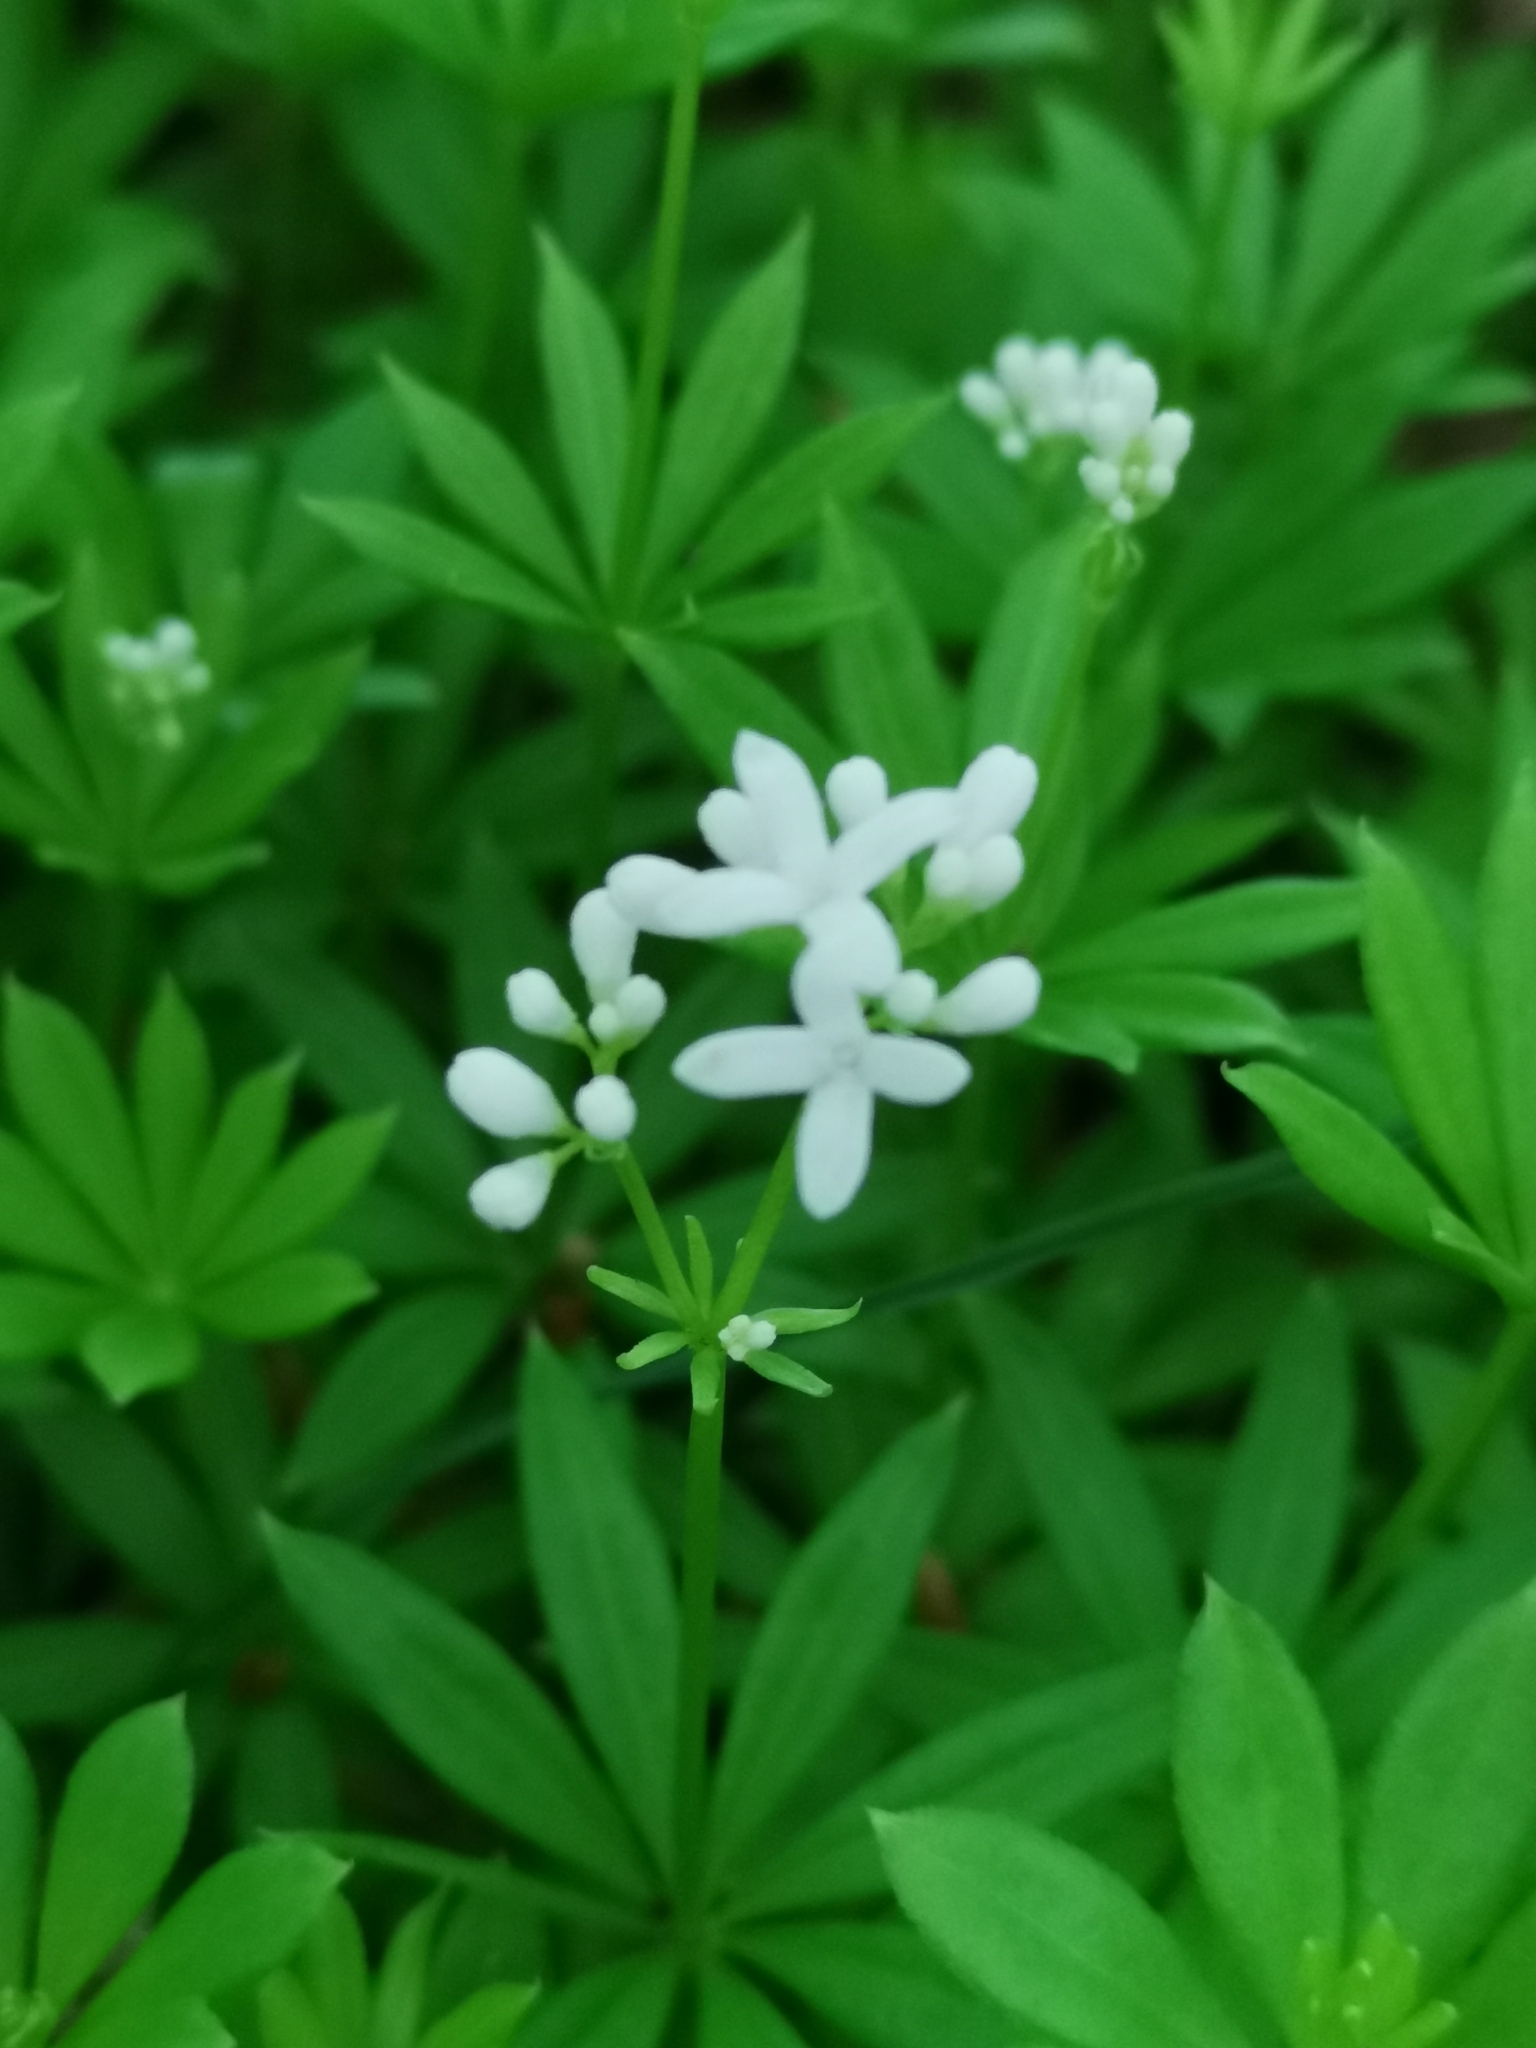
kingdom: Plantae
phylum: Tracheophyta
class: Magnoliopsida
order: Gentianales
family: Rubiaceae
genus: Galium
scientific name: Galium odoratum
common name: Sweet woodruff
